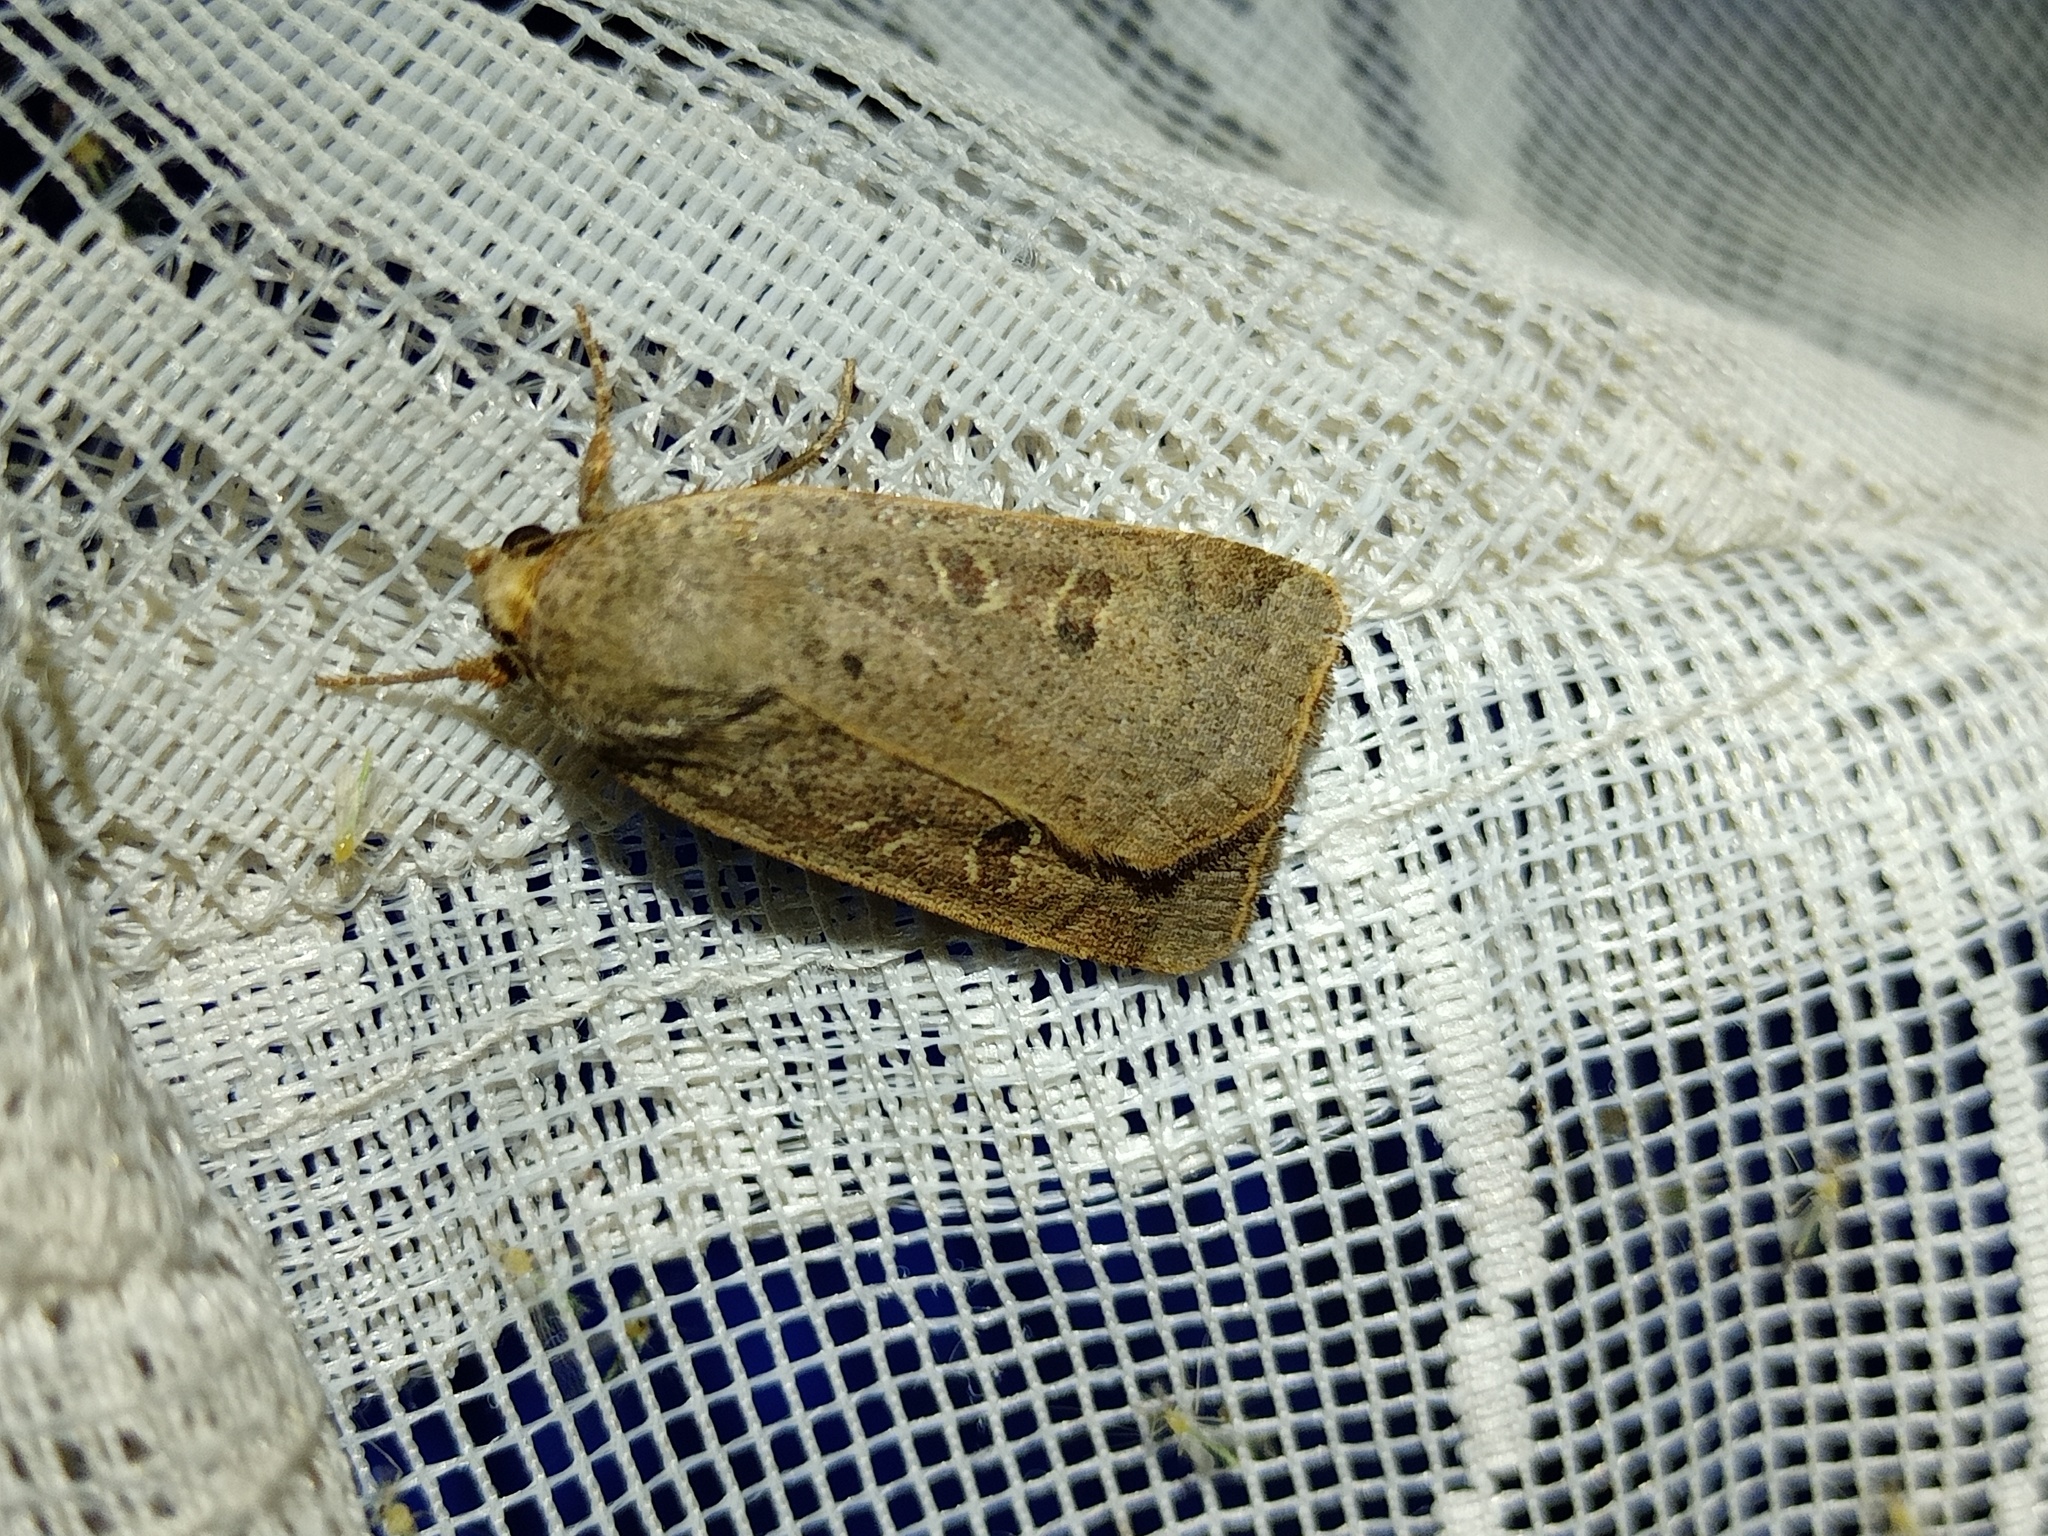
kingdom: Animalia
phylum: Arthropoda
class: Insecta
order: Lepidoptera
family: Noctuidae
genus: Noctua
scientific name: Noctua comes
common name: Lesser yellow underwing
